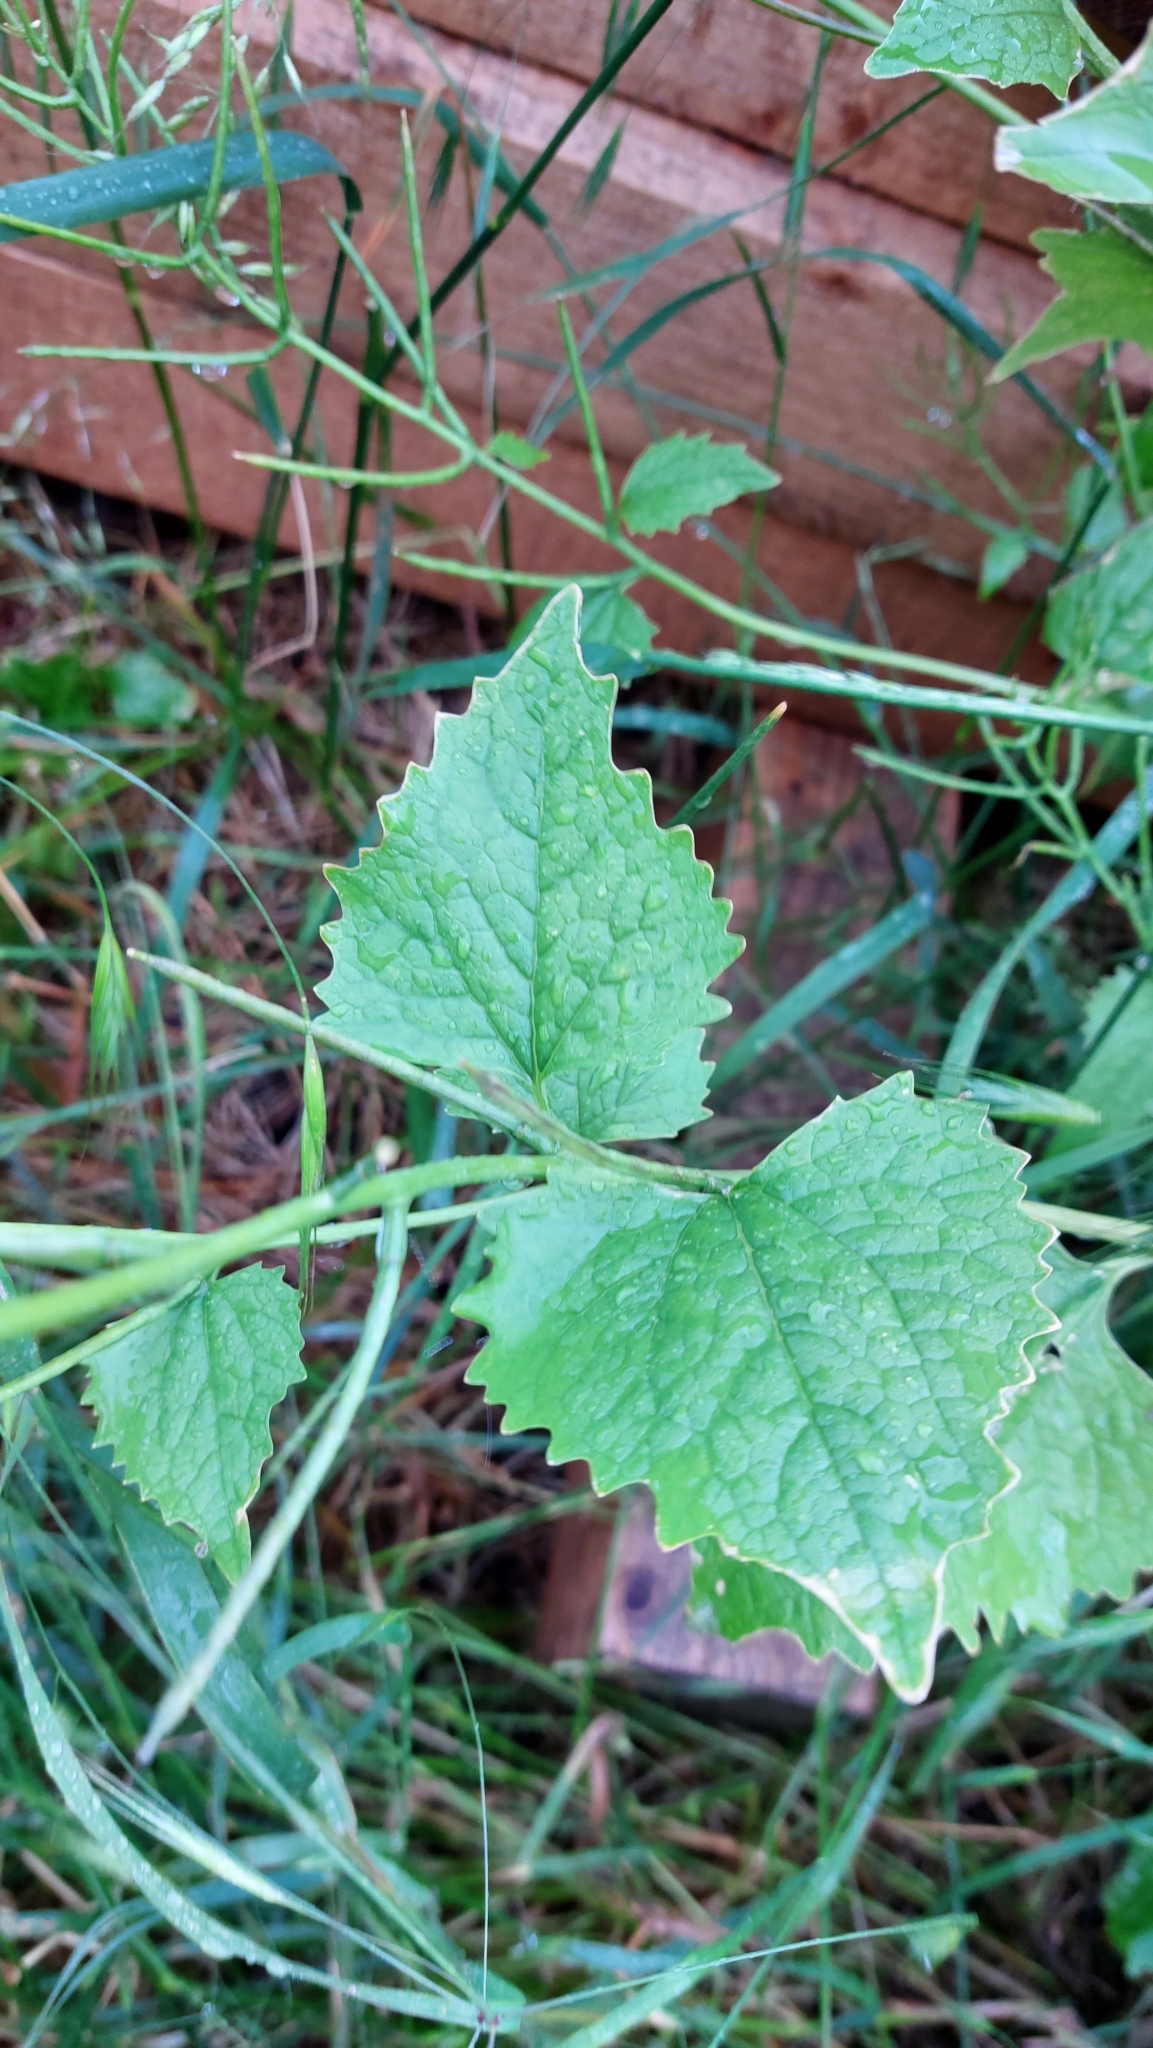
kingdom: Plantae
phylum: Tracheophyta
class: Magnoliopsida
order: Brassicales
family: Brassicaceae
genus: Alliaria
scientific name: Alliaria petiolata
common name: Garlic mustard
